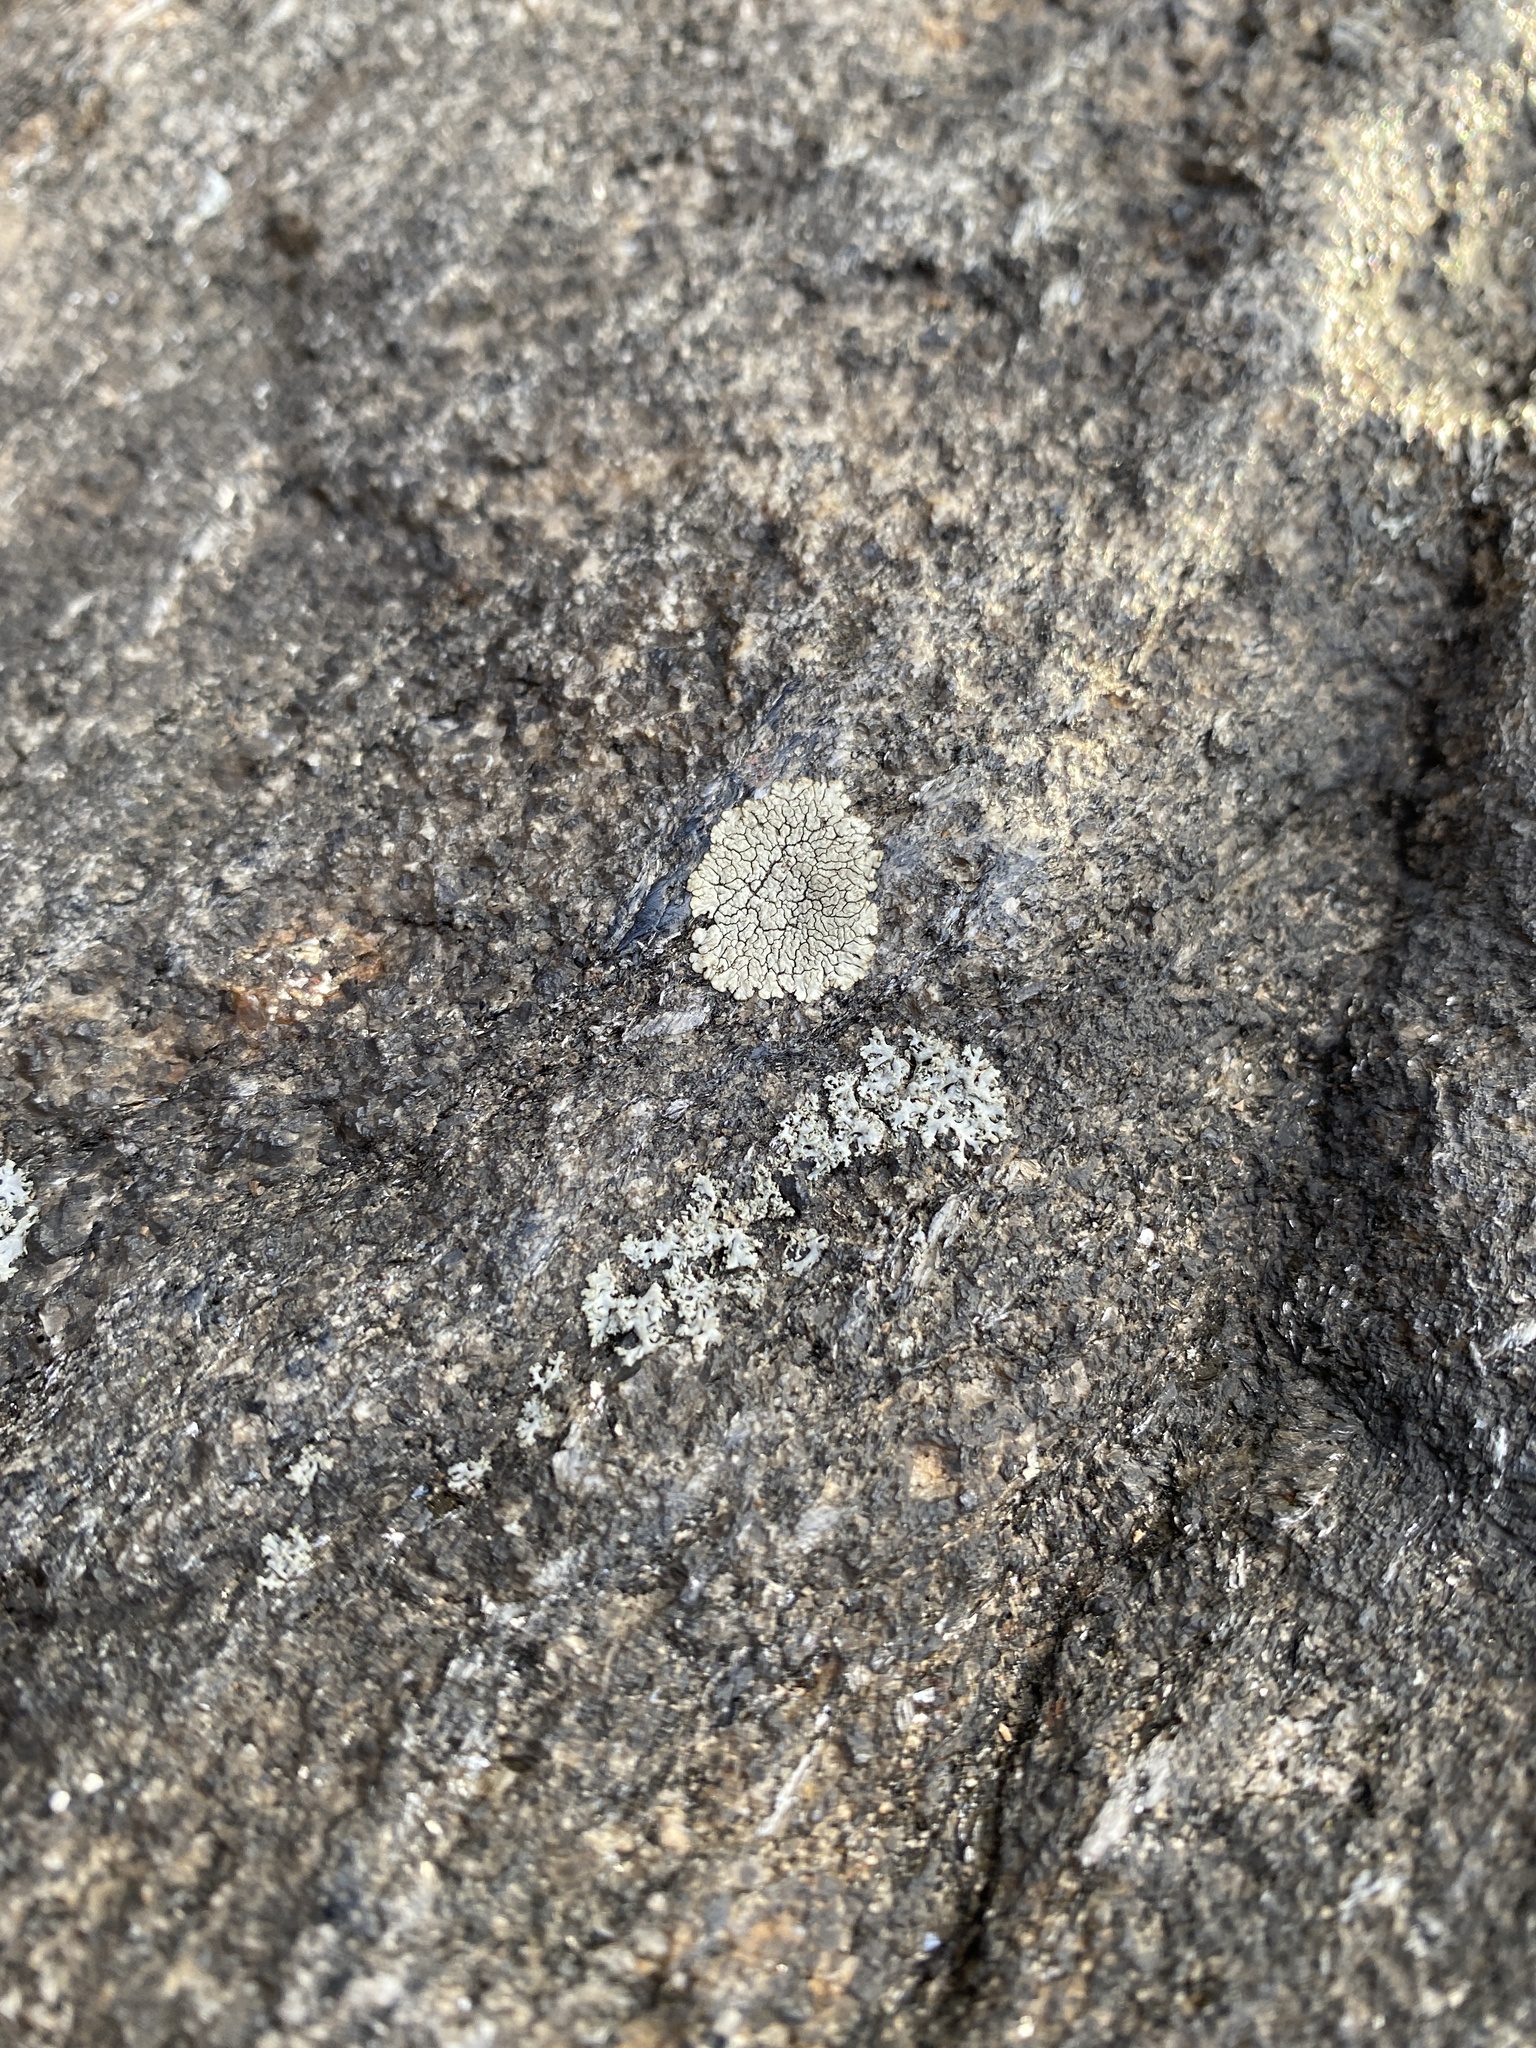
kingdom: Fungi
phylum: Ascomycota
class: Lecanoromycetes
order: Caliciales
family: Caliciaceae
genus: Dimelaena
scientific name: Dimelaena oreina
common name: Golden moonglow lichen
